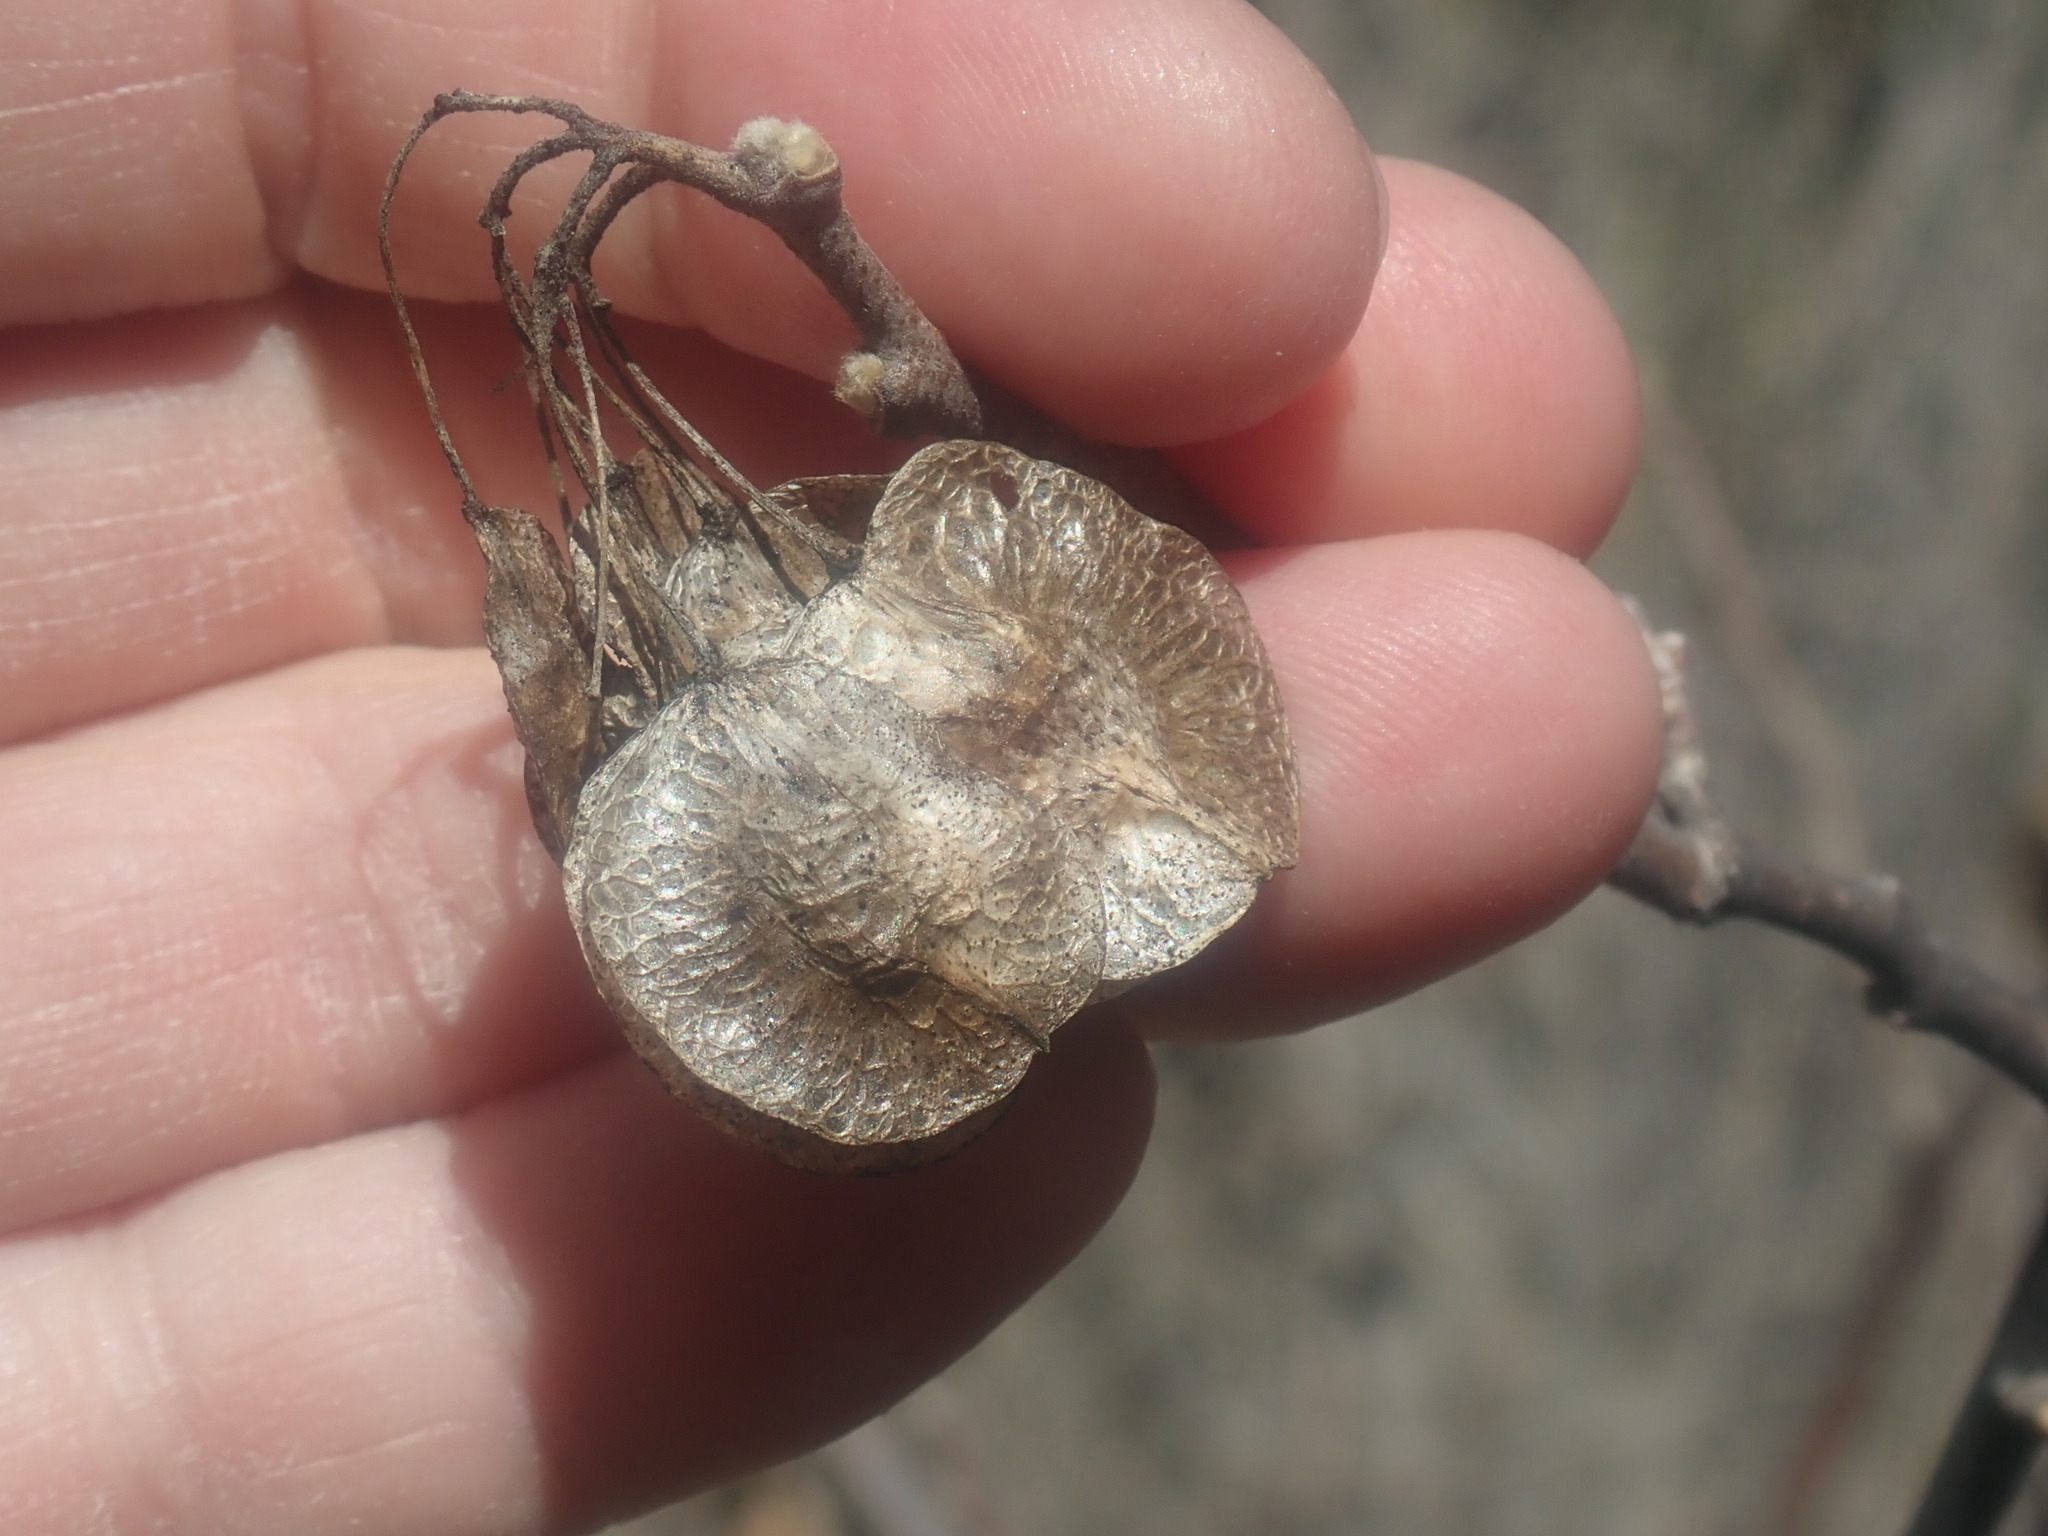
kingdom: Plantae
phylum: Tracheophyta
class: Magnoliopsida
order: Sapindales
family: Rutaceae
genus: Ptelea
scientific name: Ptelea trifoliata
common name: Common hop-tree
